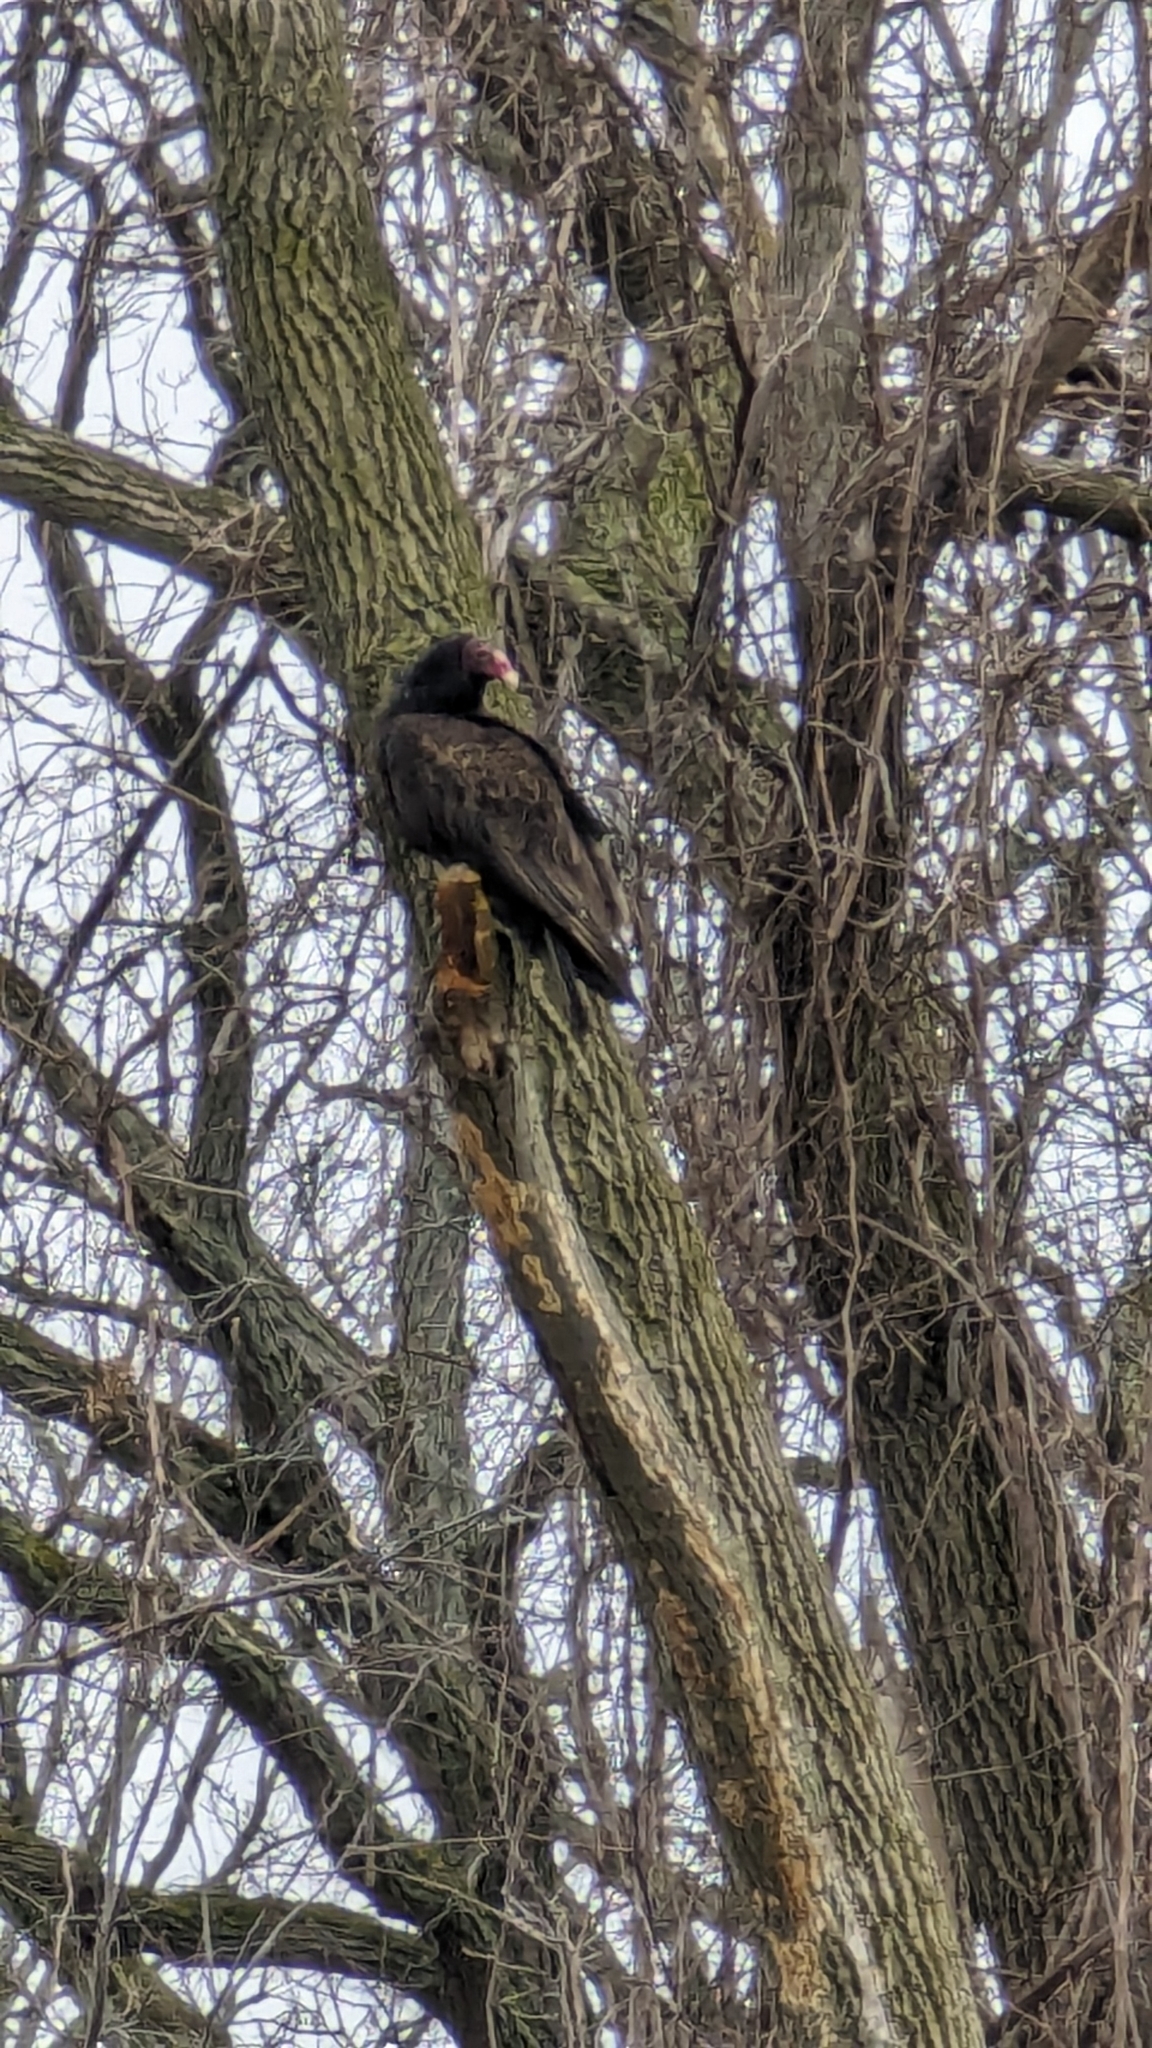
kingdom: Animalia
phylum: Chordata
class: Aves
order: Accipitriformes
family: Cathartidae
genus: Cathartes
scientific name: Cathartes aura
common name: Turkey vulture
